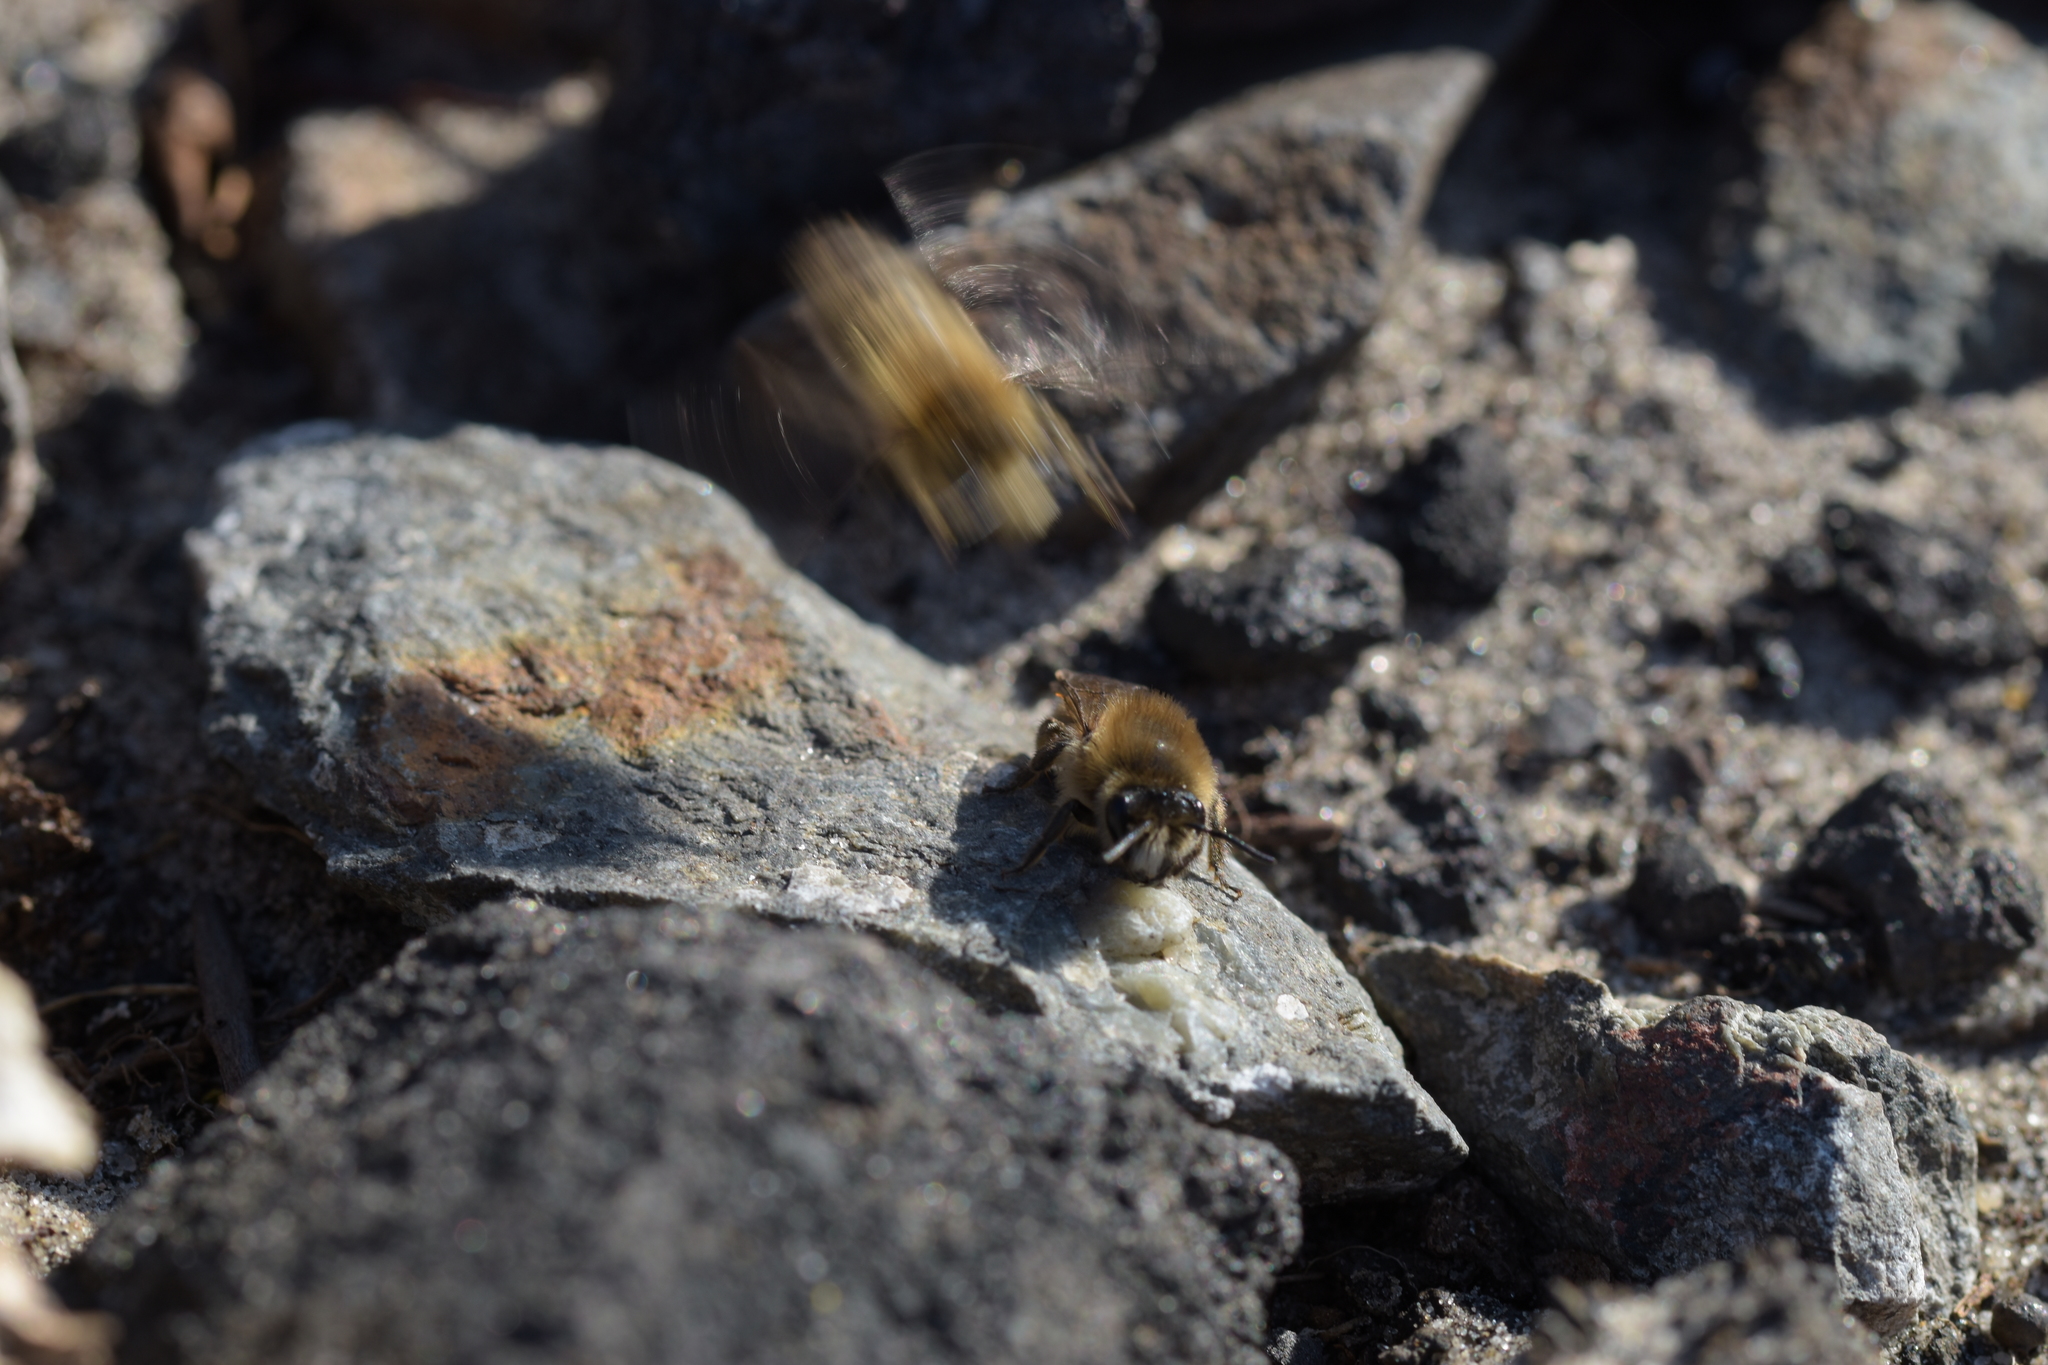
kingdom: Animalia
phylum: Arthropoda
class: Insecta
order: Hymenoptera
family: Colletidae
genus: Colletes
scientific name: Colletes cunicularius
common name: Early colletes
